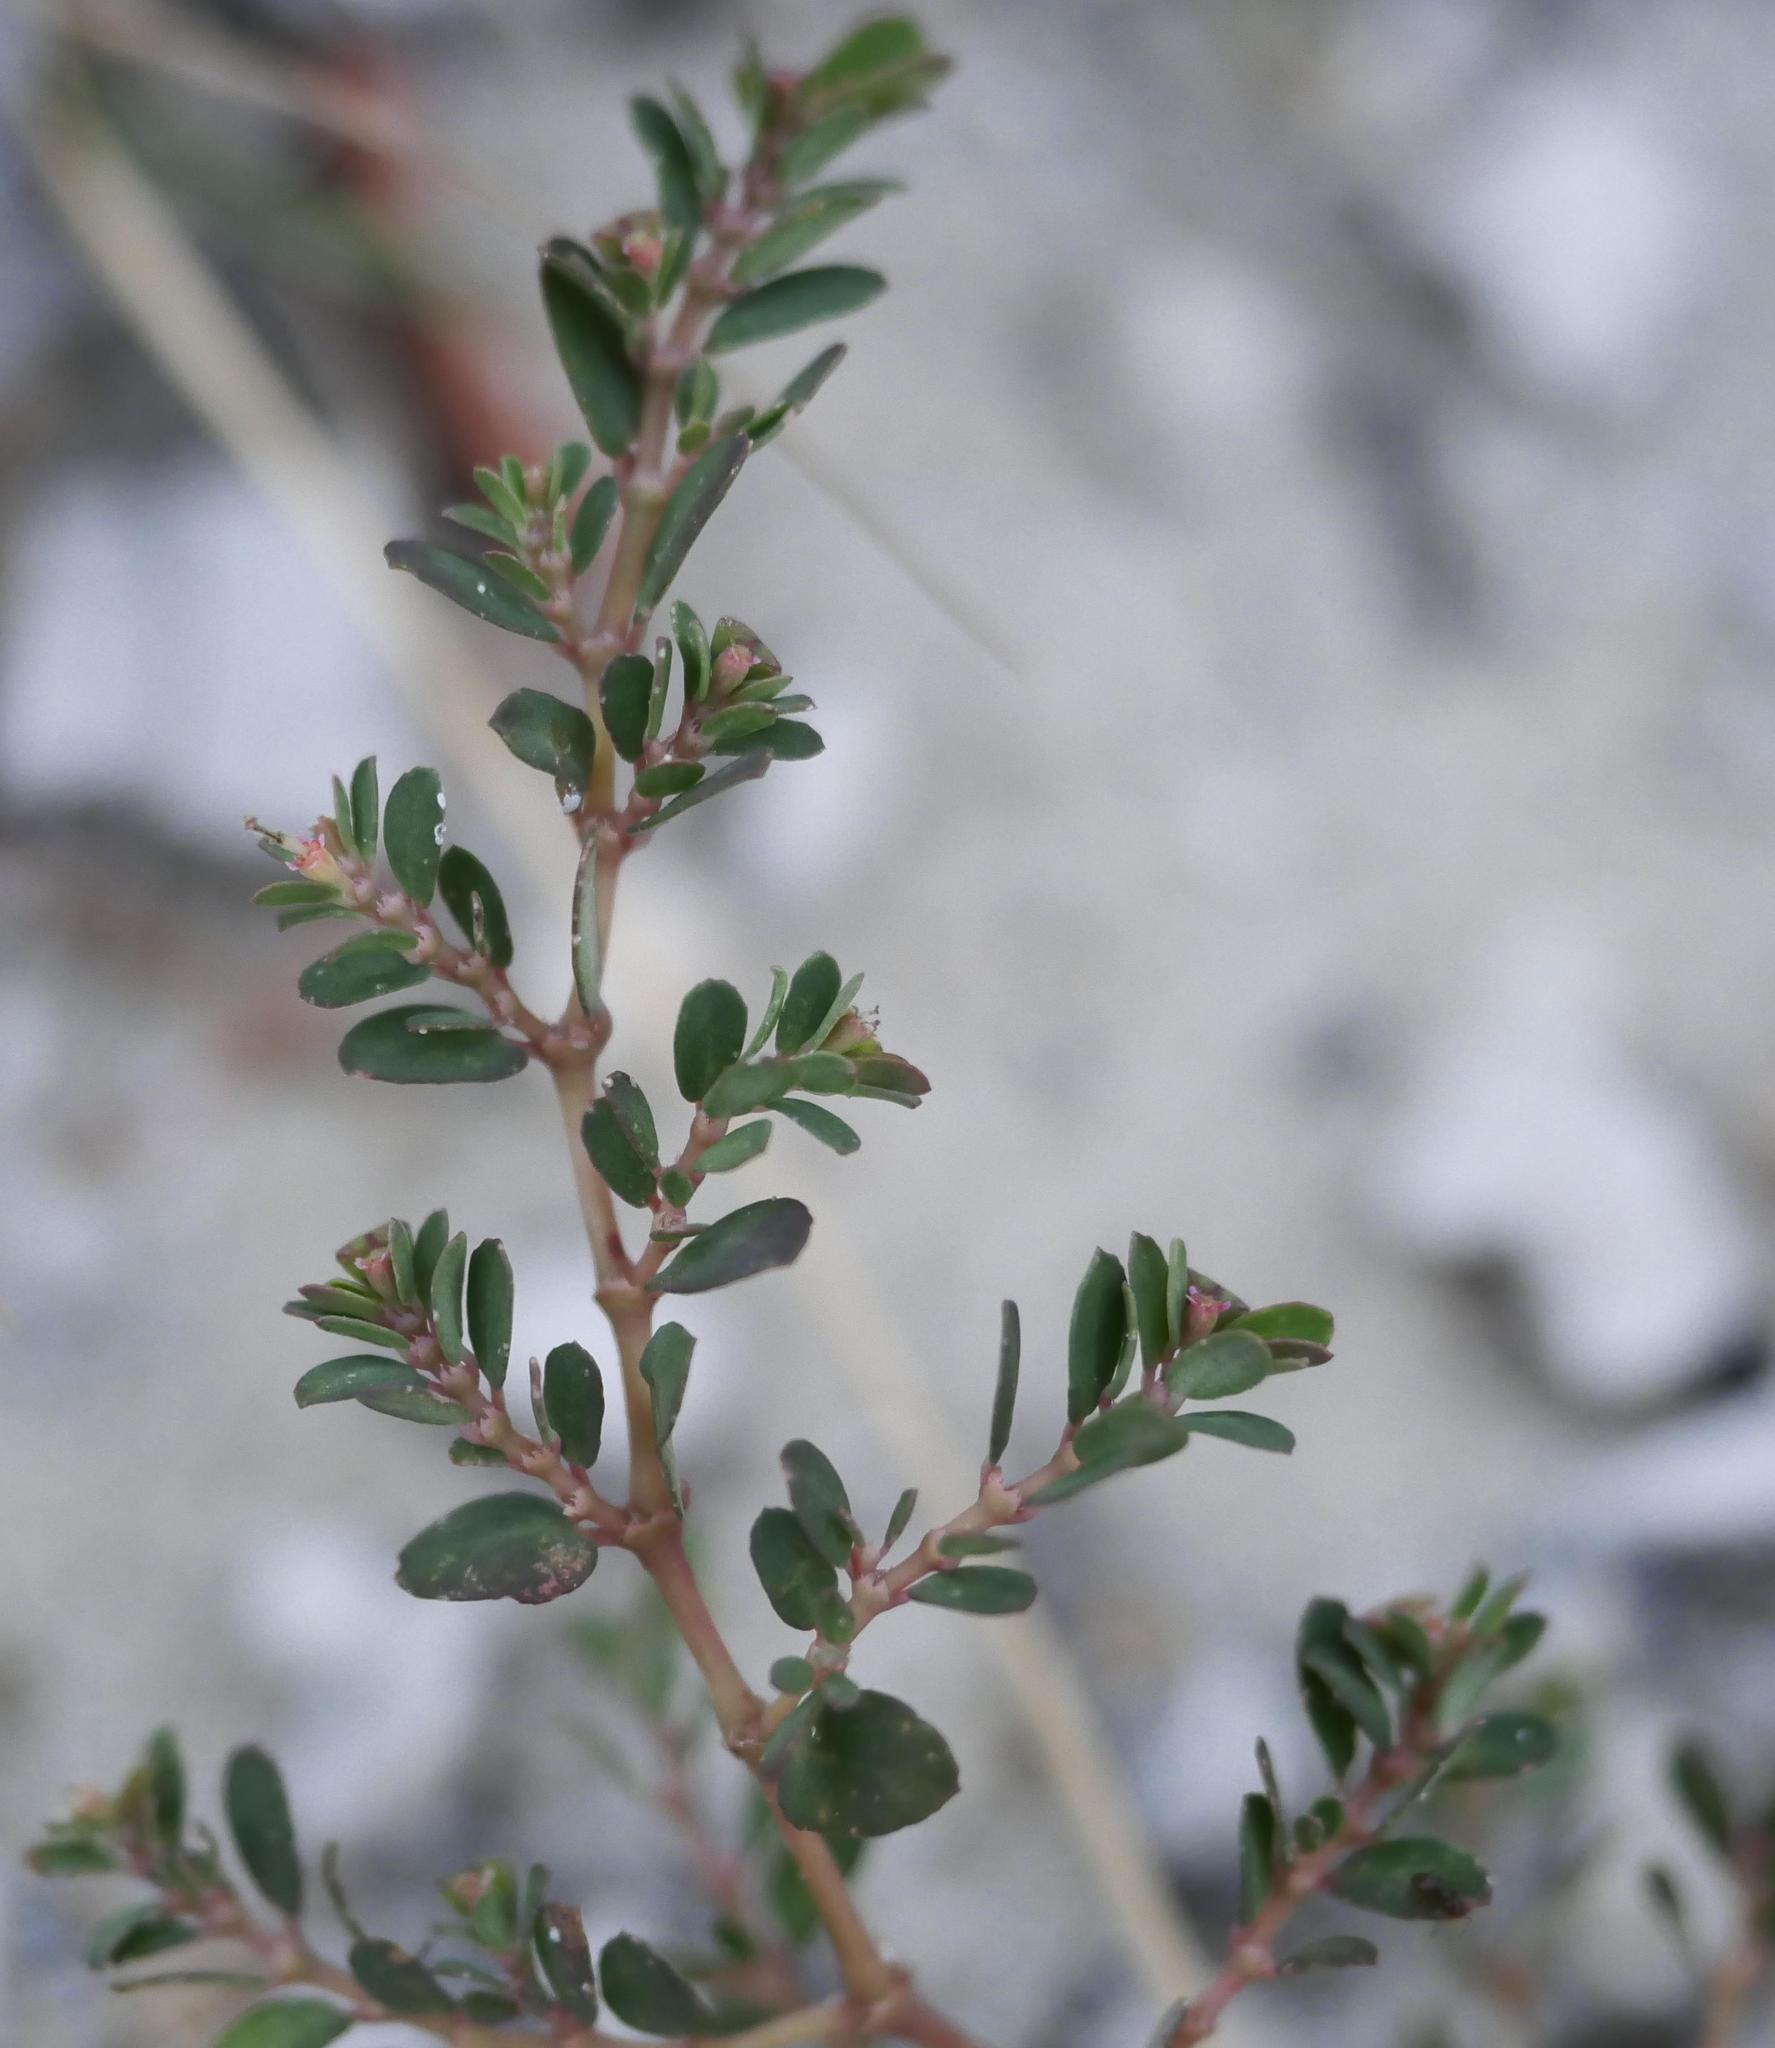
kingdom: Plantae
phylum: Tracheophyta
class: Magnoliopsida
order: Malpighiales
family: Euphorbiaceae
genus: Euphorbia
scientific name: Euphorbia blodgettii
